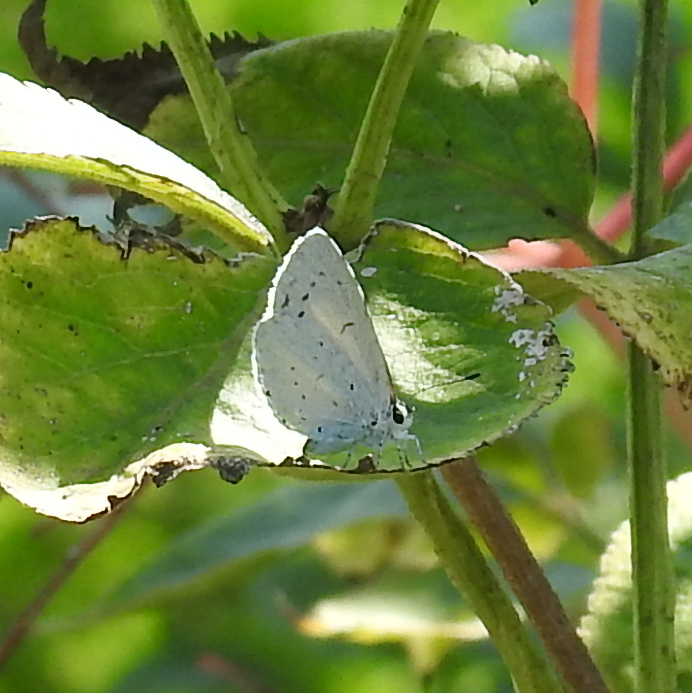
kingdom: Animalia
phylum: Arthropoda
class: Insecta
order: Lepidoptera
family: Lycaenidae
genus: Celastrina
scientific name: Celastrina argiolus
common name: Holly blue
